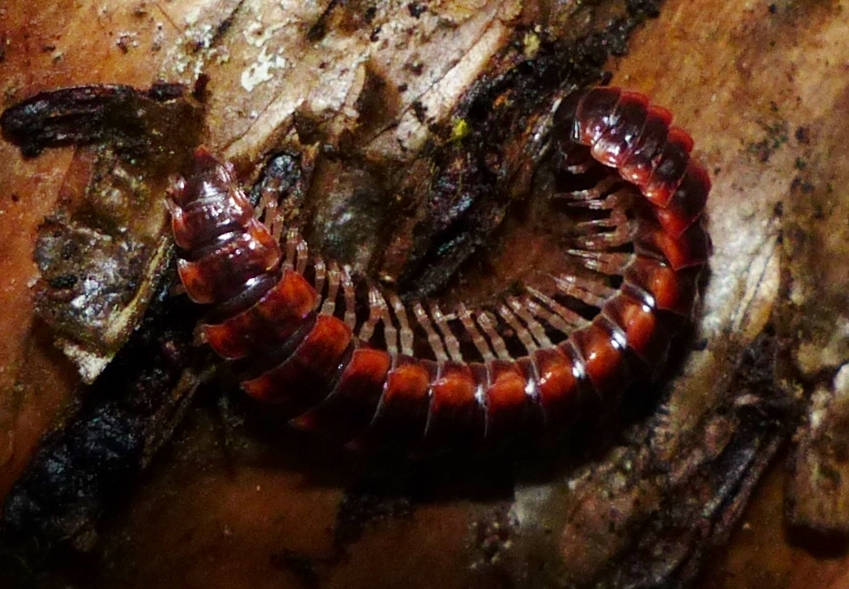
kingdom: Animalia
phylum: Arthropoda
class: Diplopoda
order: Polydesmida
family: Polydesmidae
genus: Pseudopolydesmus
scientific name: Pseudopolydesmus canadensis
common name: Canadian flat-back millipede
